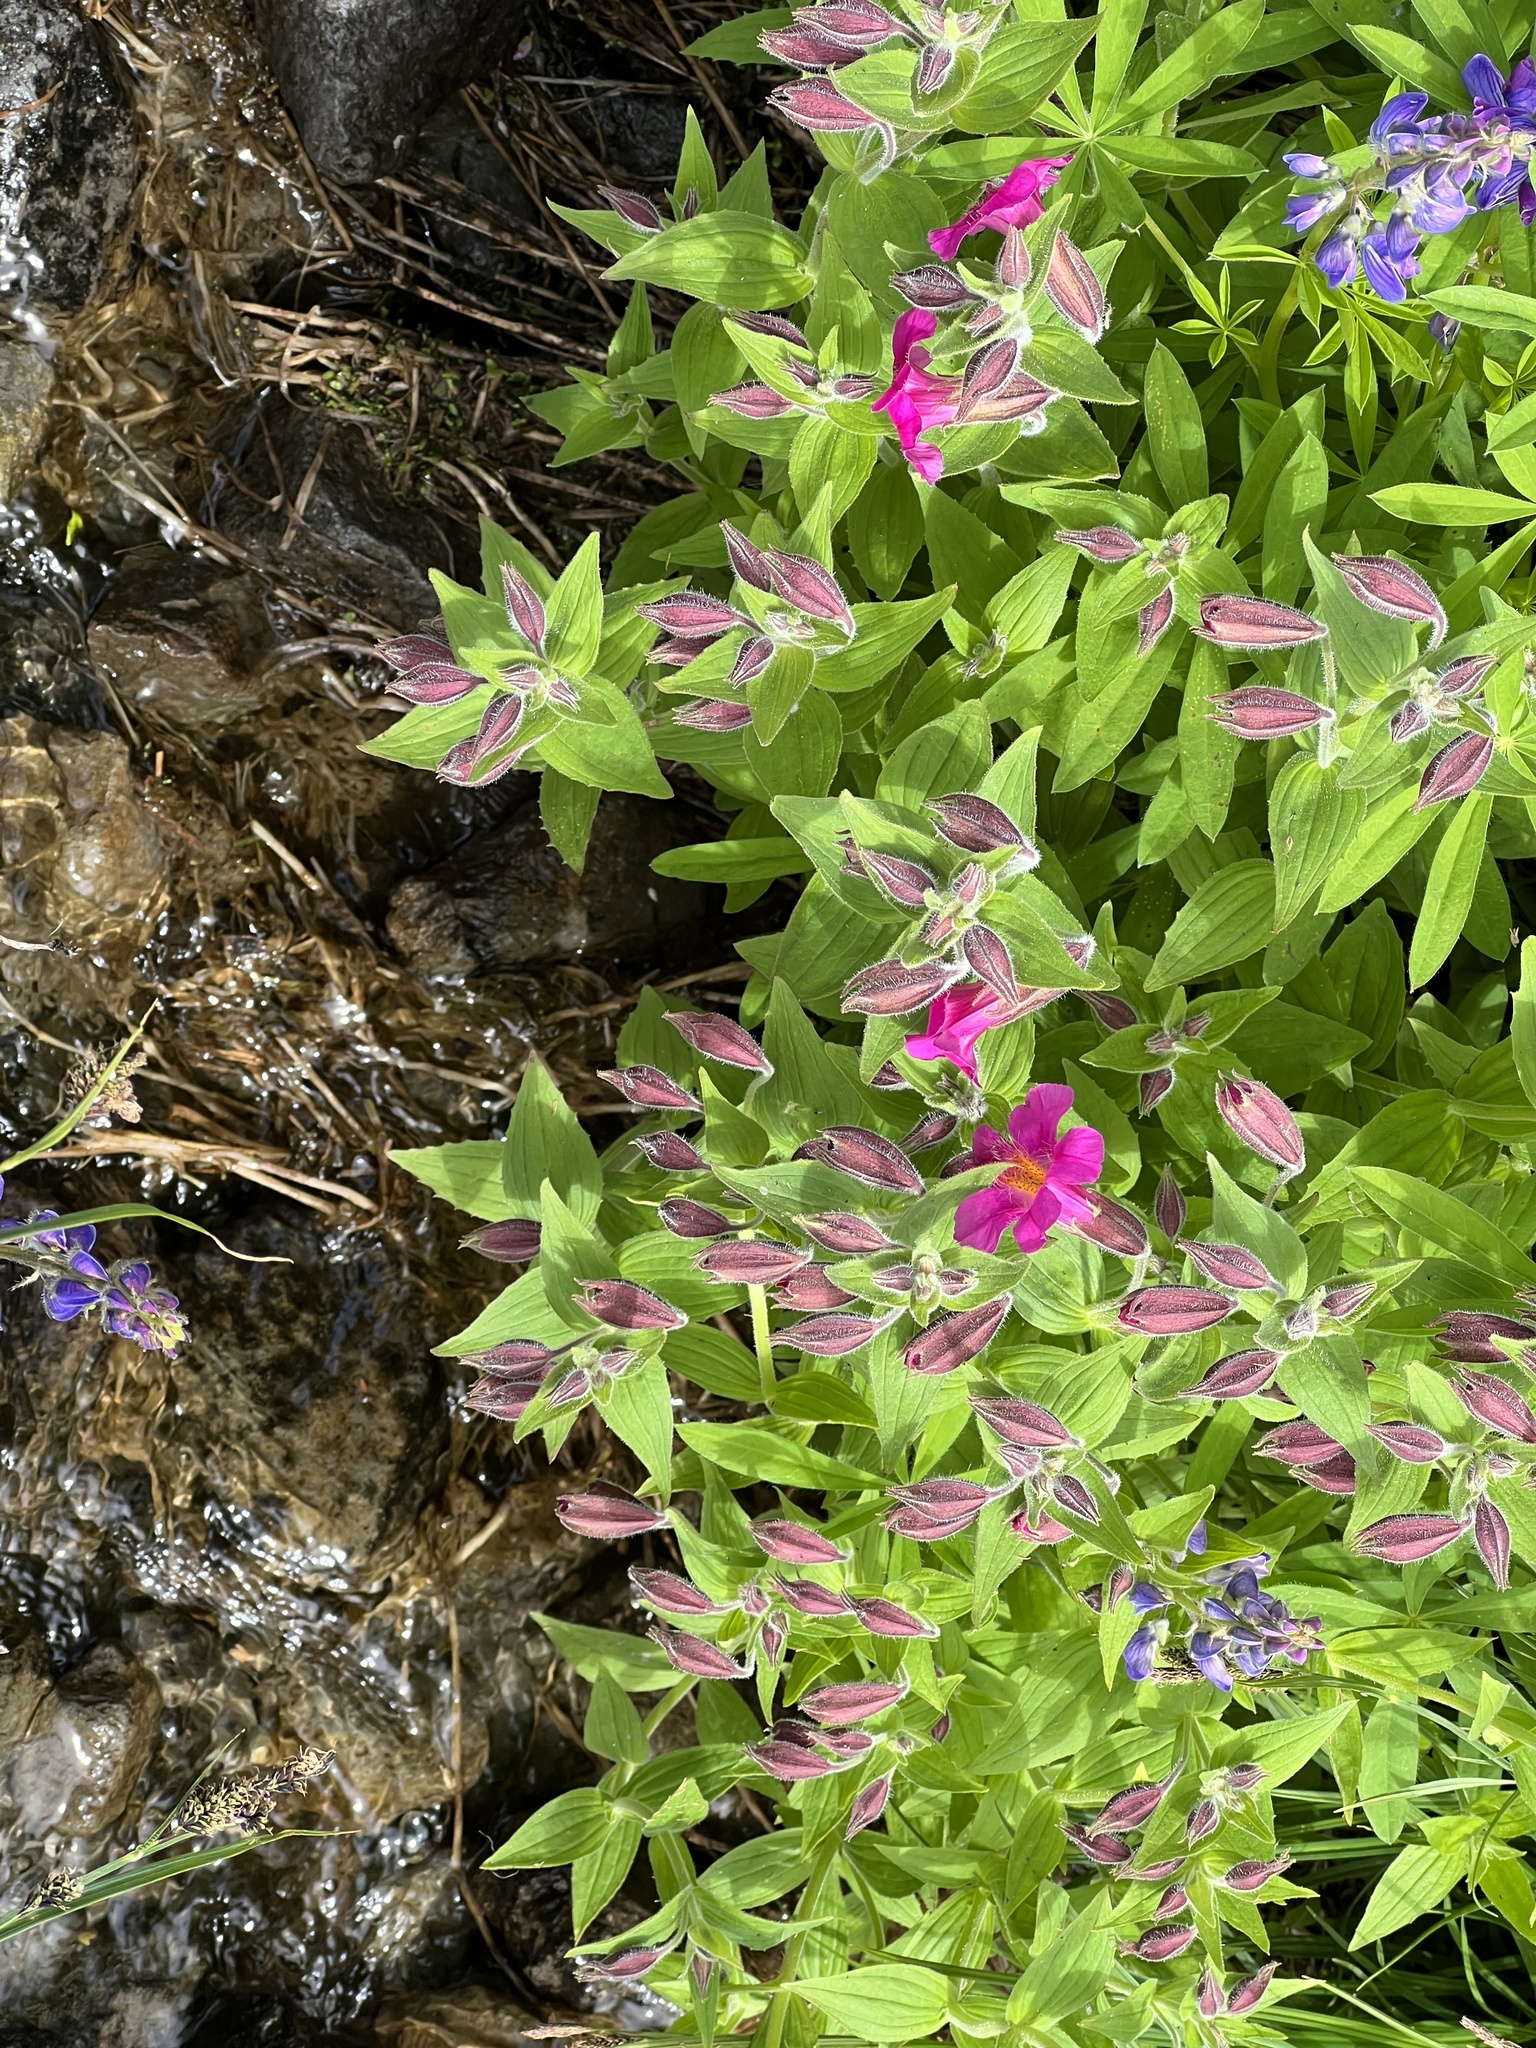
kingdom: Plantae
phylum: Tracheophyta
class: Magnoliopsida
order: Lamiales
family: Phrymaceae
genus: Erythranthe
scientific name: Erythranthe lewisii
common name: Lewis's monkey-flower
